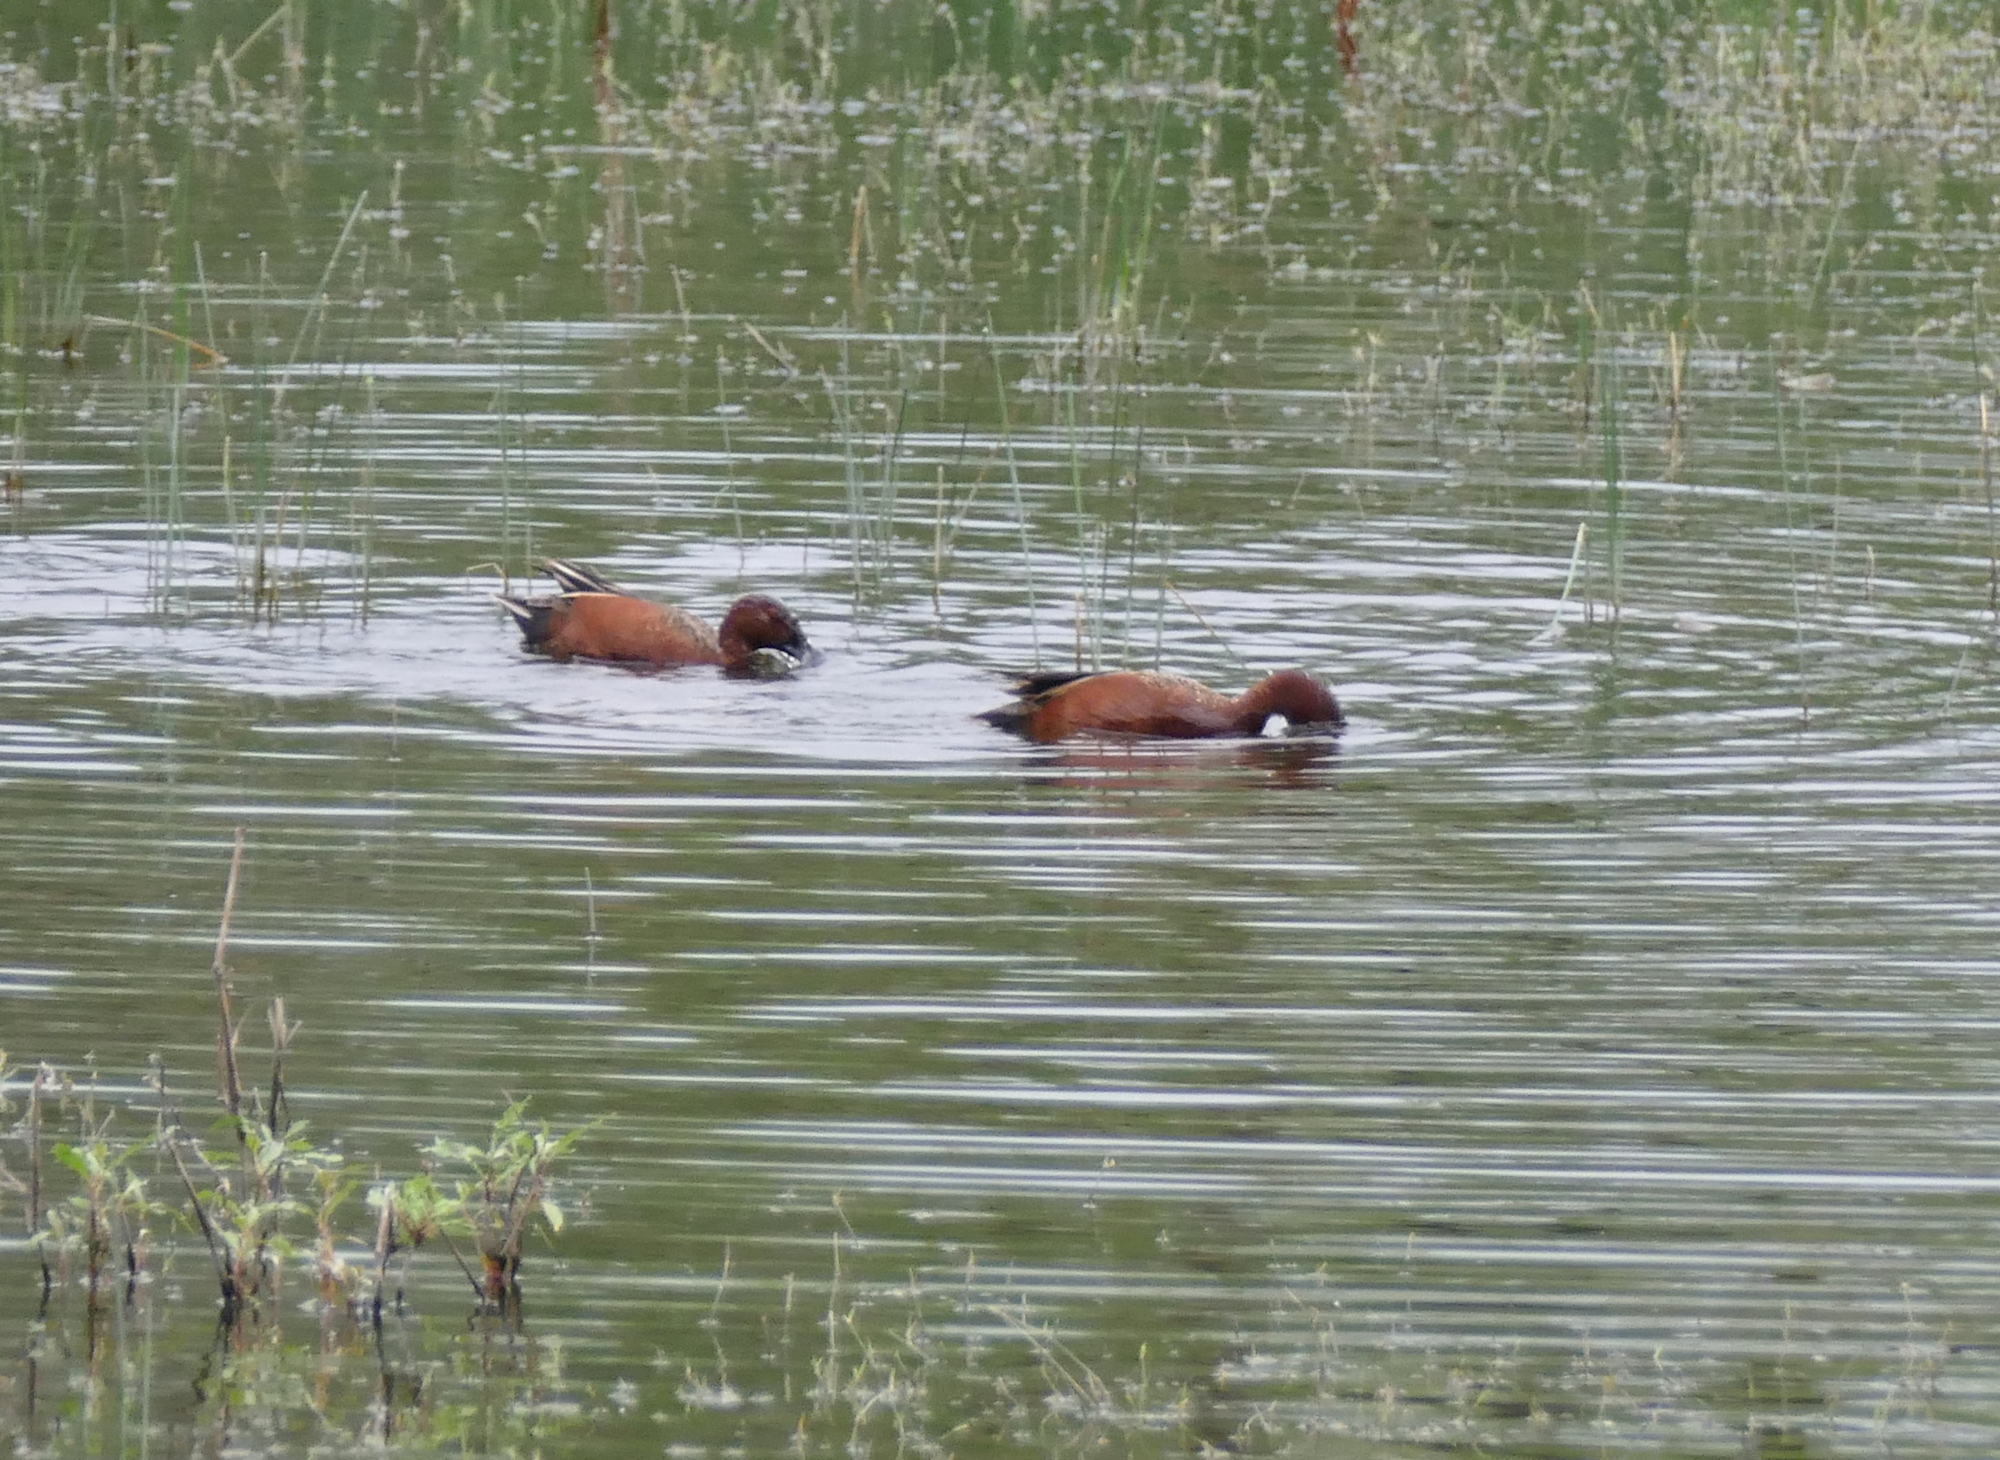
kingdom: Animalia
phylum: Chordata
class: Aves
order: Anseriformes
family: Anatidae
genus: Spatula
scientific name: Spatula cyanoptera
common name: Cinnamon teal
